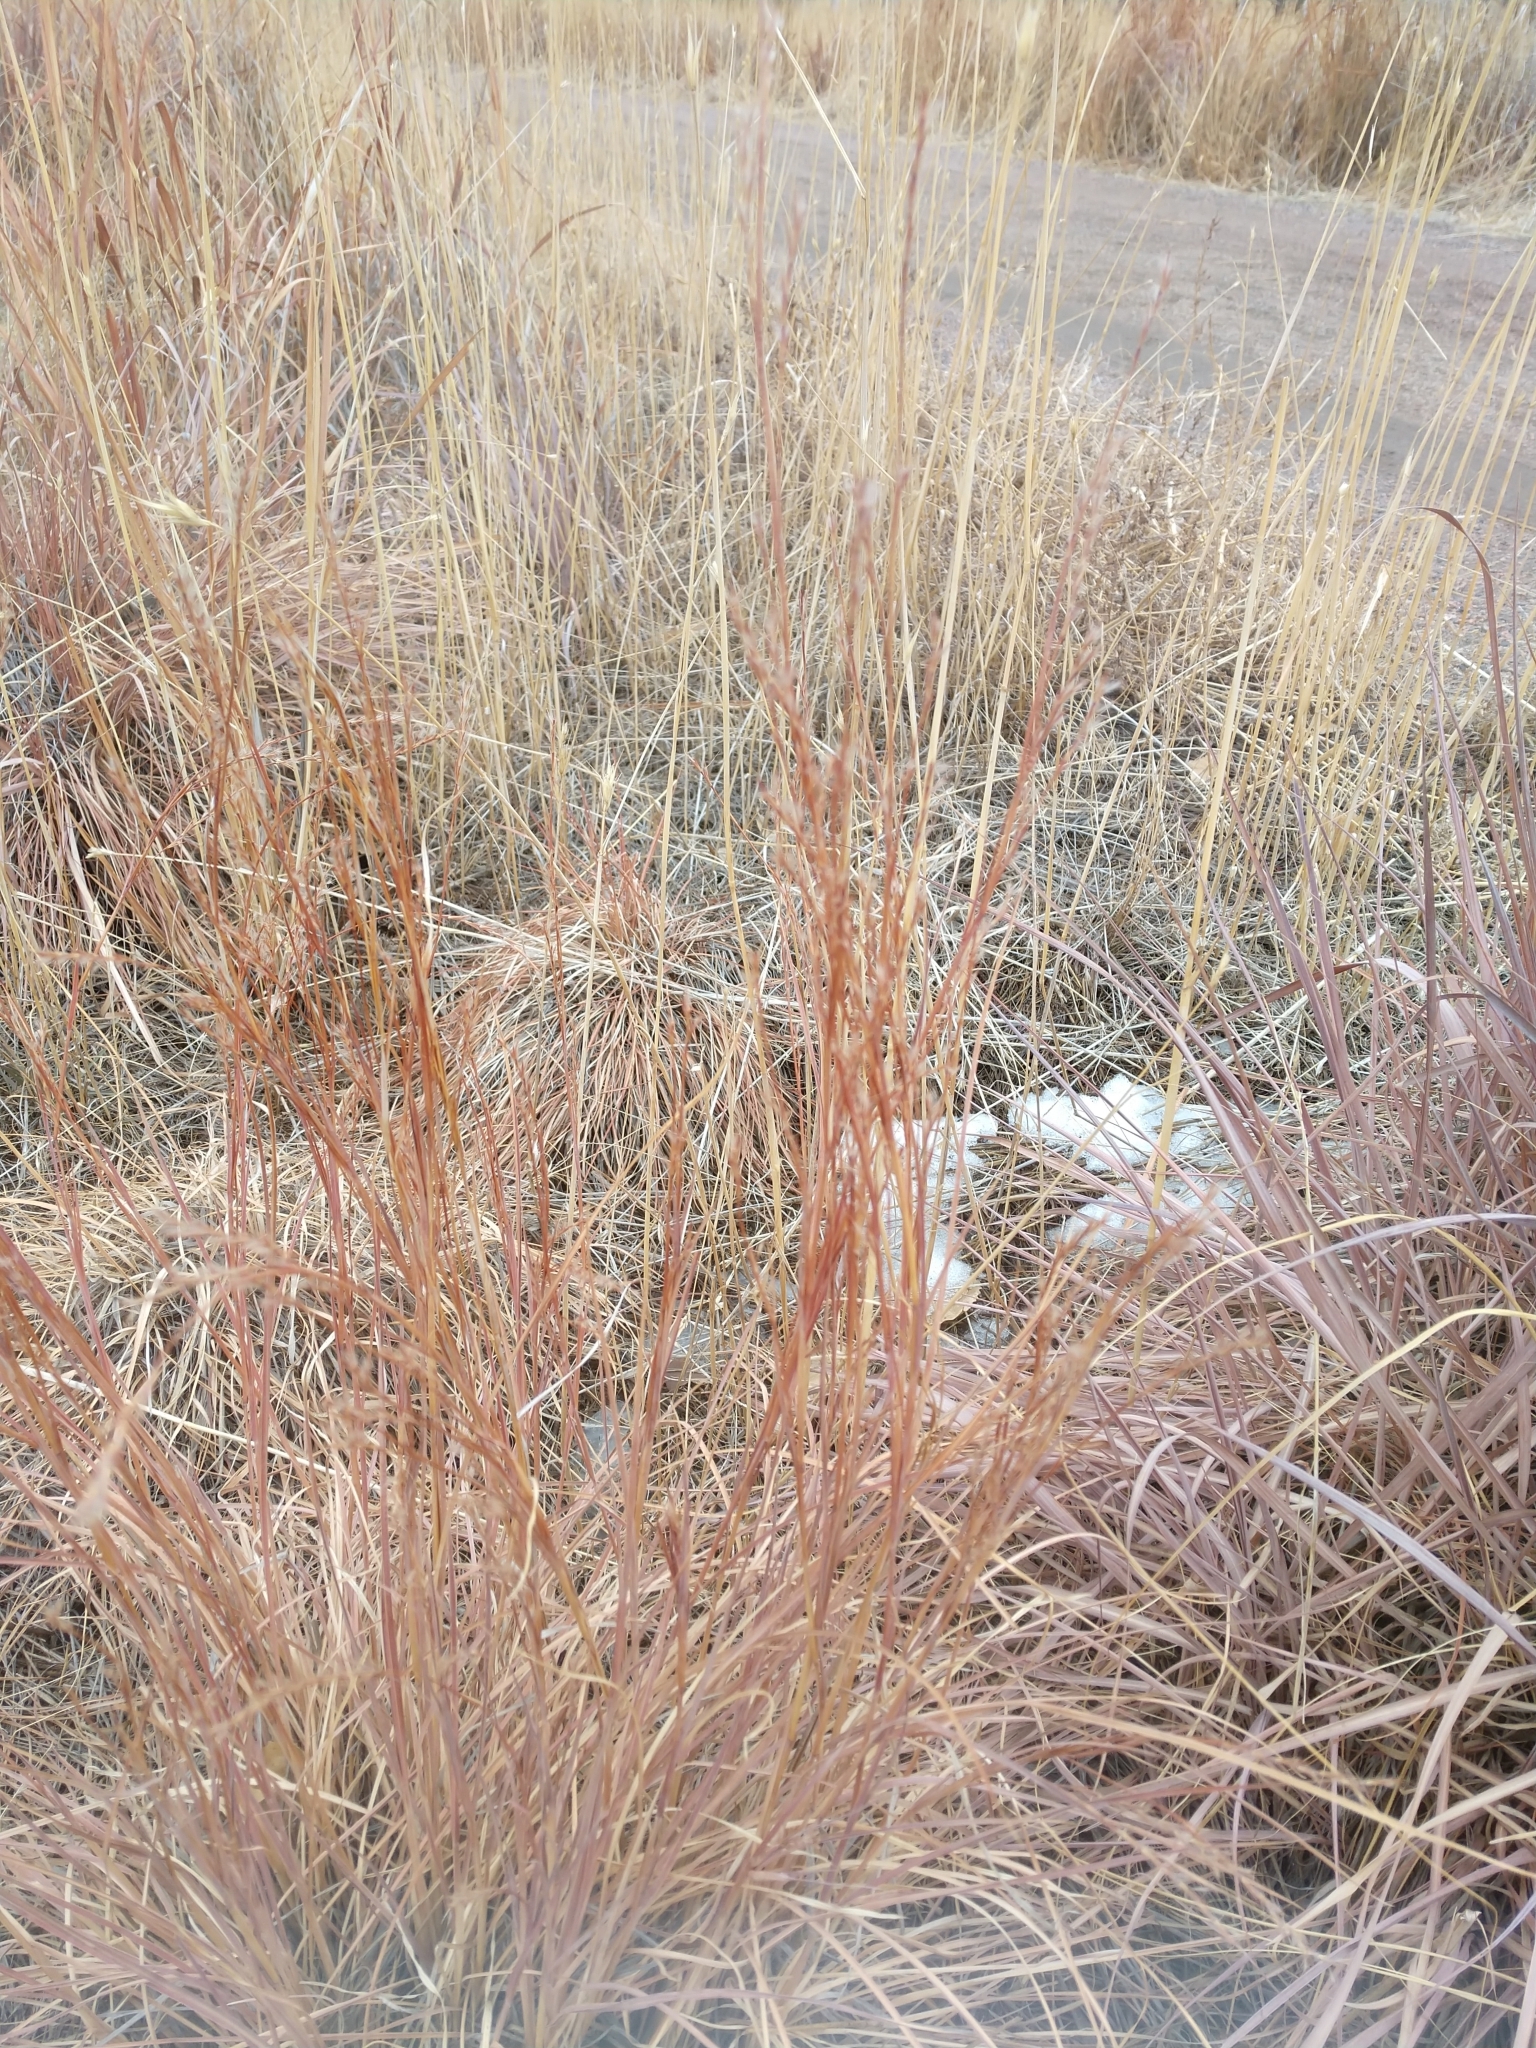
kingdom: Plantae
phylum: Tracheophyta
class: Liliopsida
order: Poales
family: Poaceae
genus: Schizachyrium
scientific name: Schizachyrium scoparium
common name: Little bluestem
